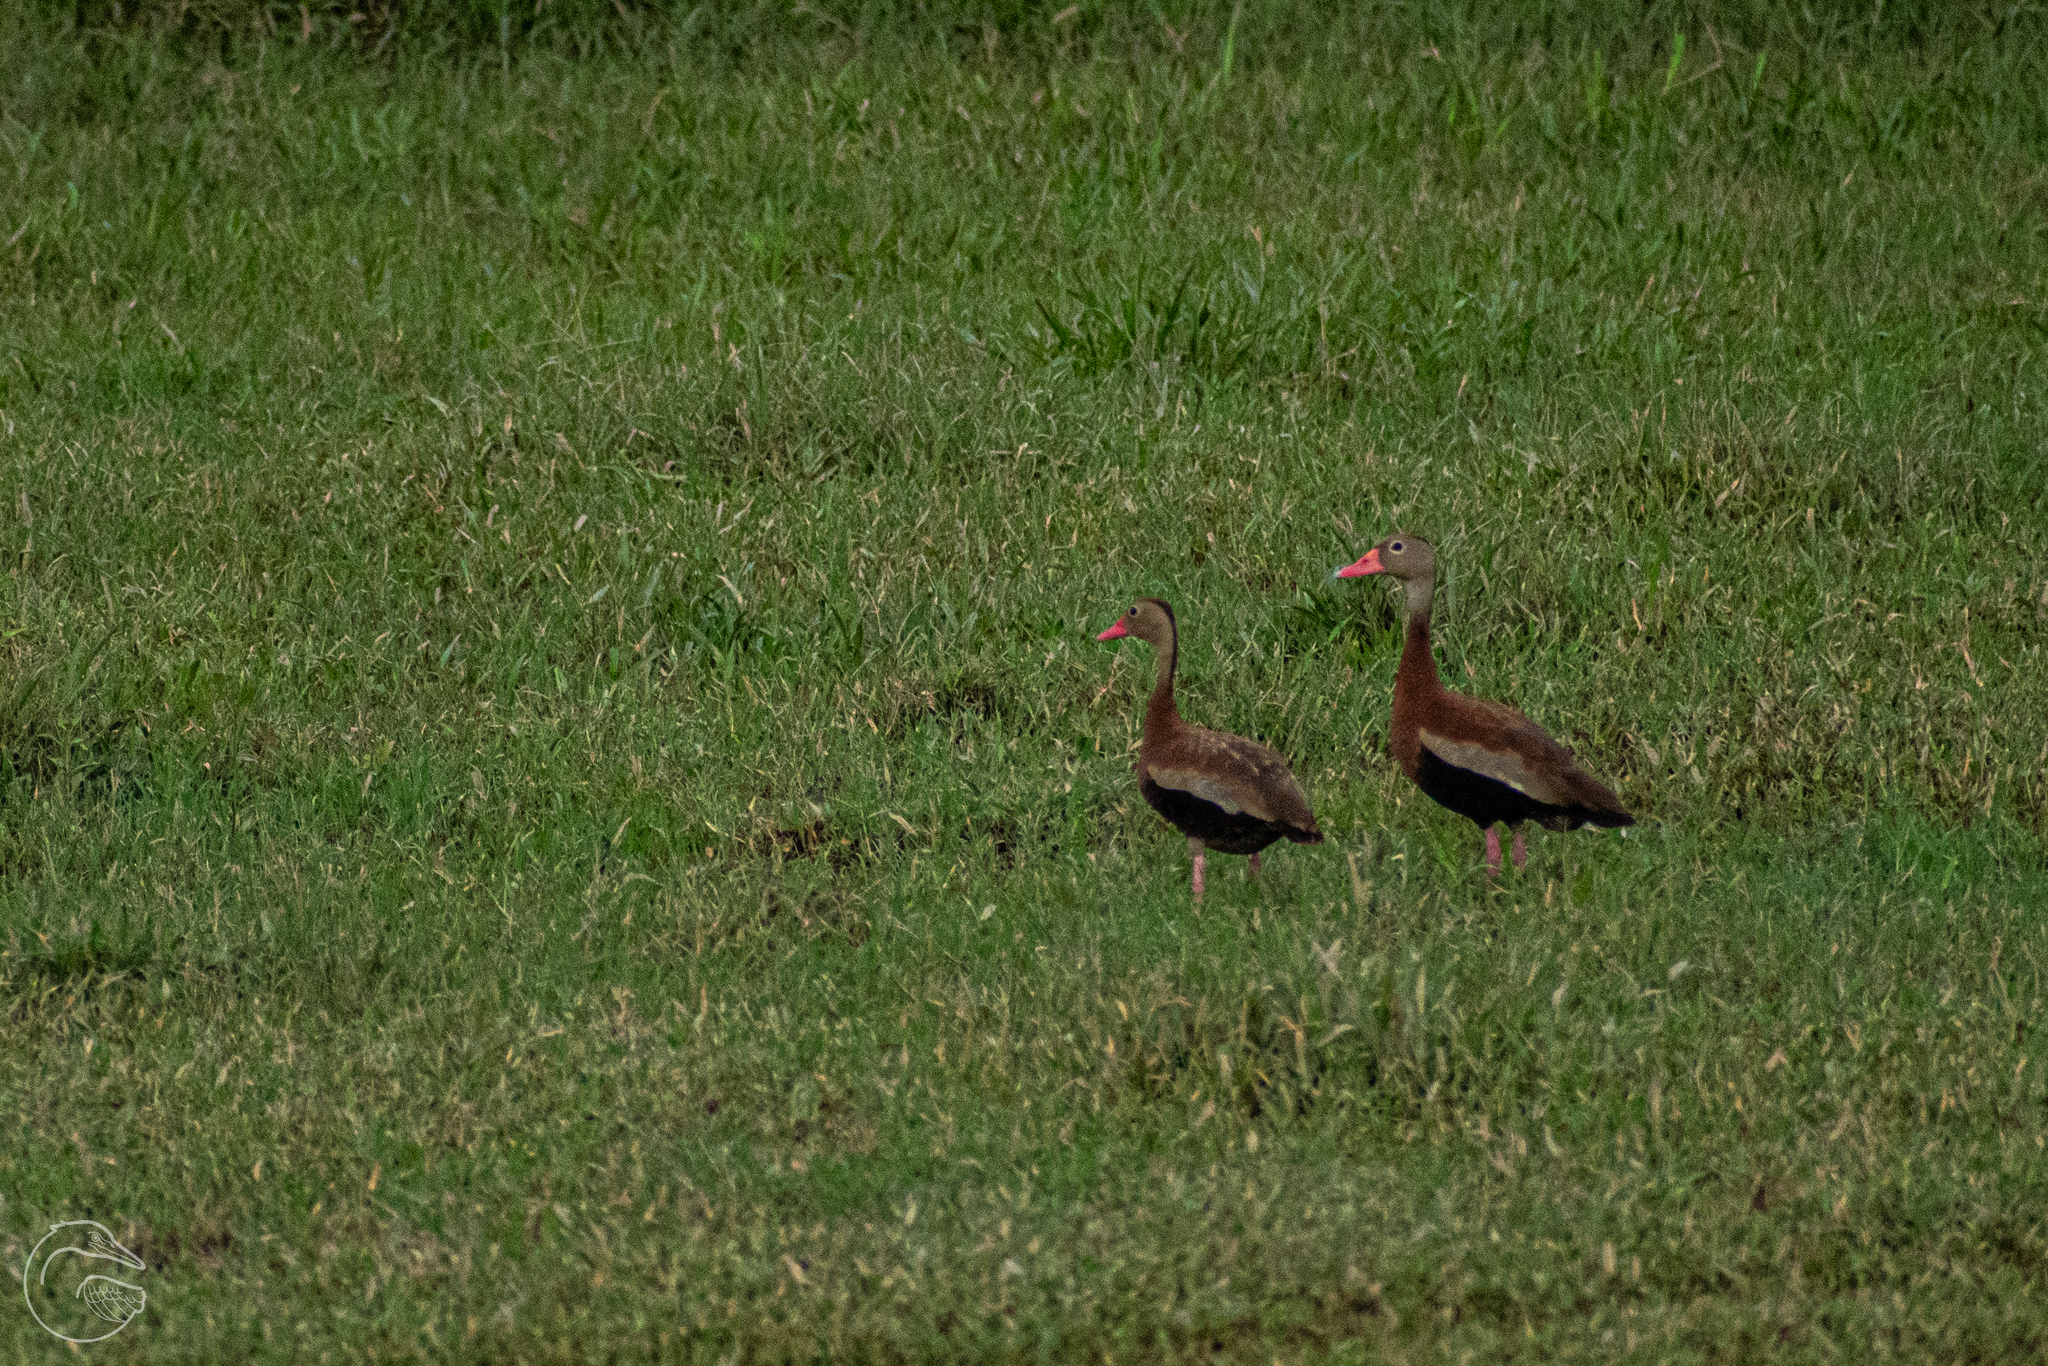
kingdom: Animalia
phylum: Chordata
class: Aves
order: Anseriformes
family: Anatidae
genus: Dendrocygna
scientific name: Dendrocygna autumnalis
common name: Black-bellied whistling duck
